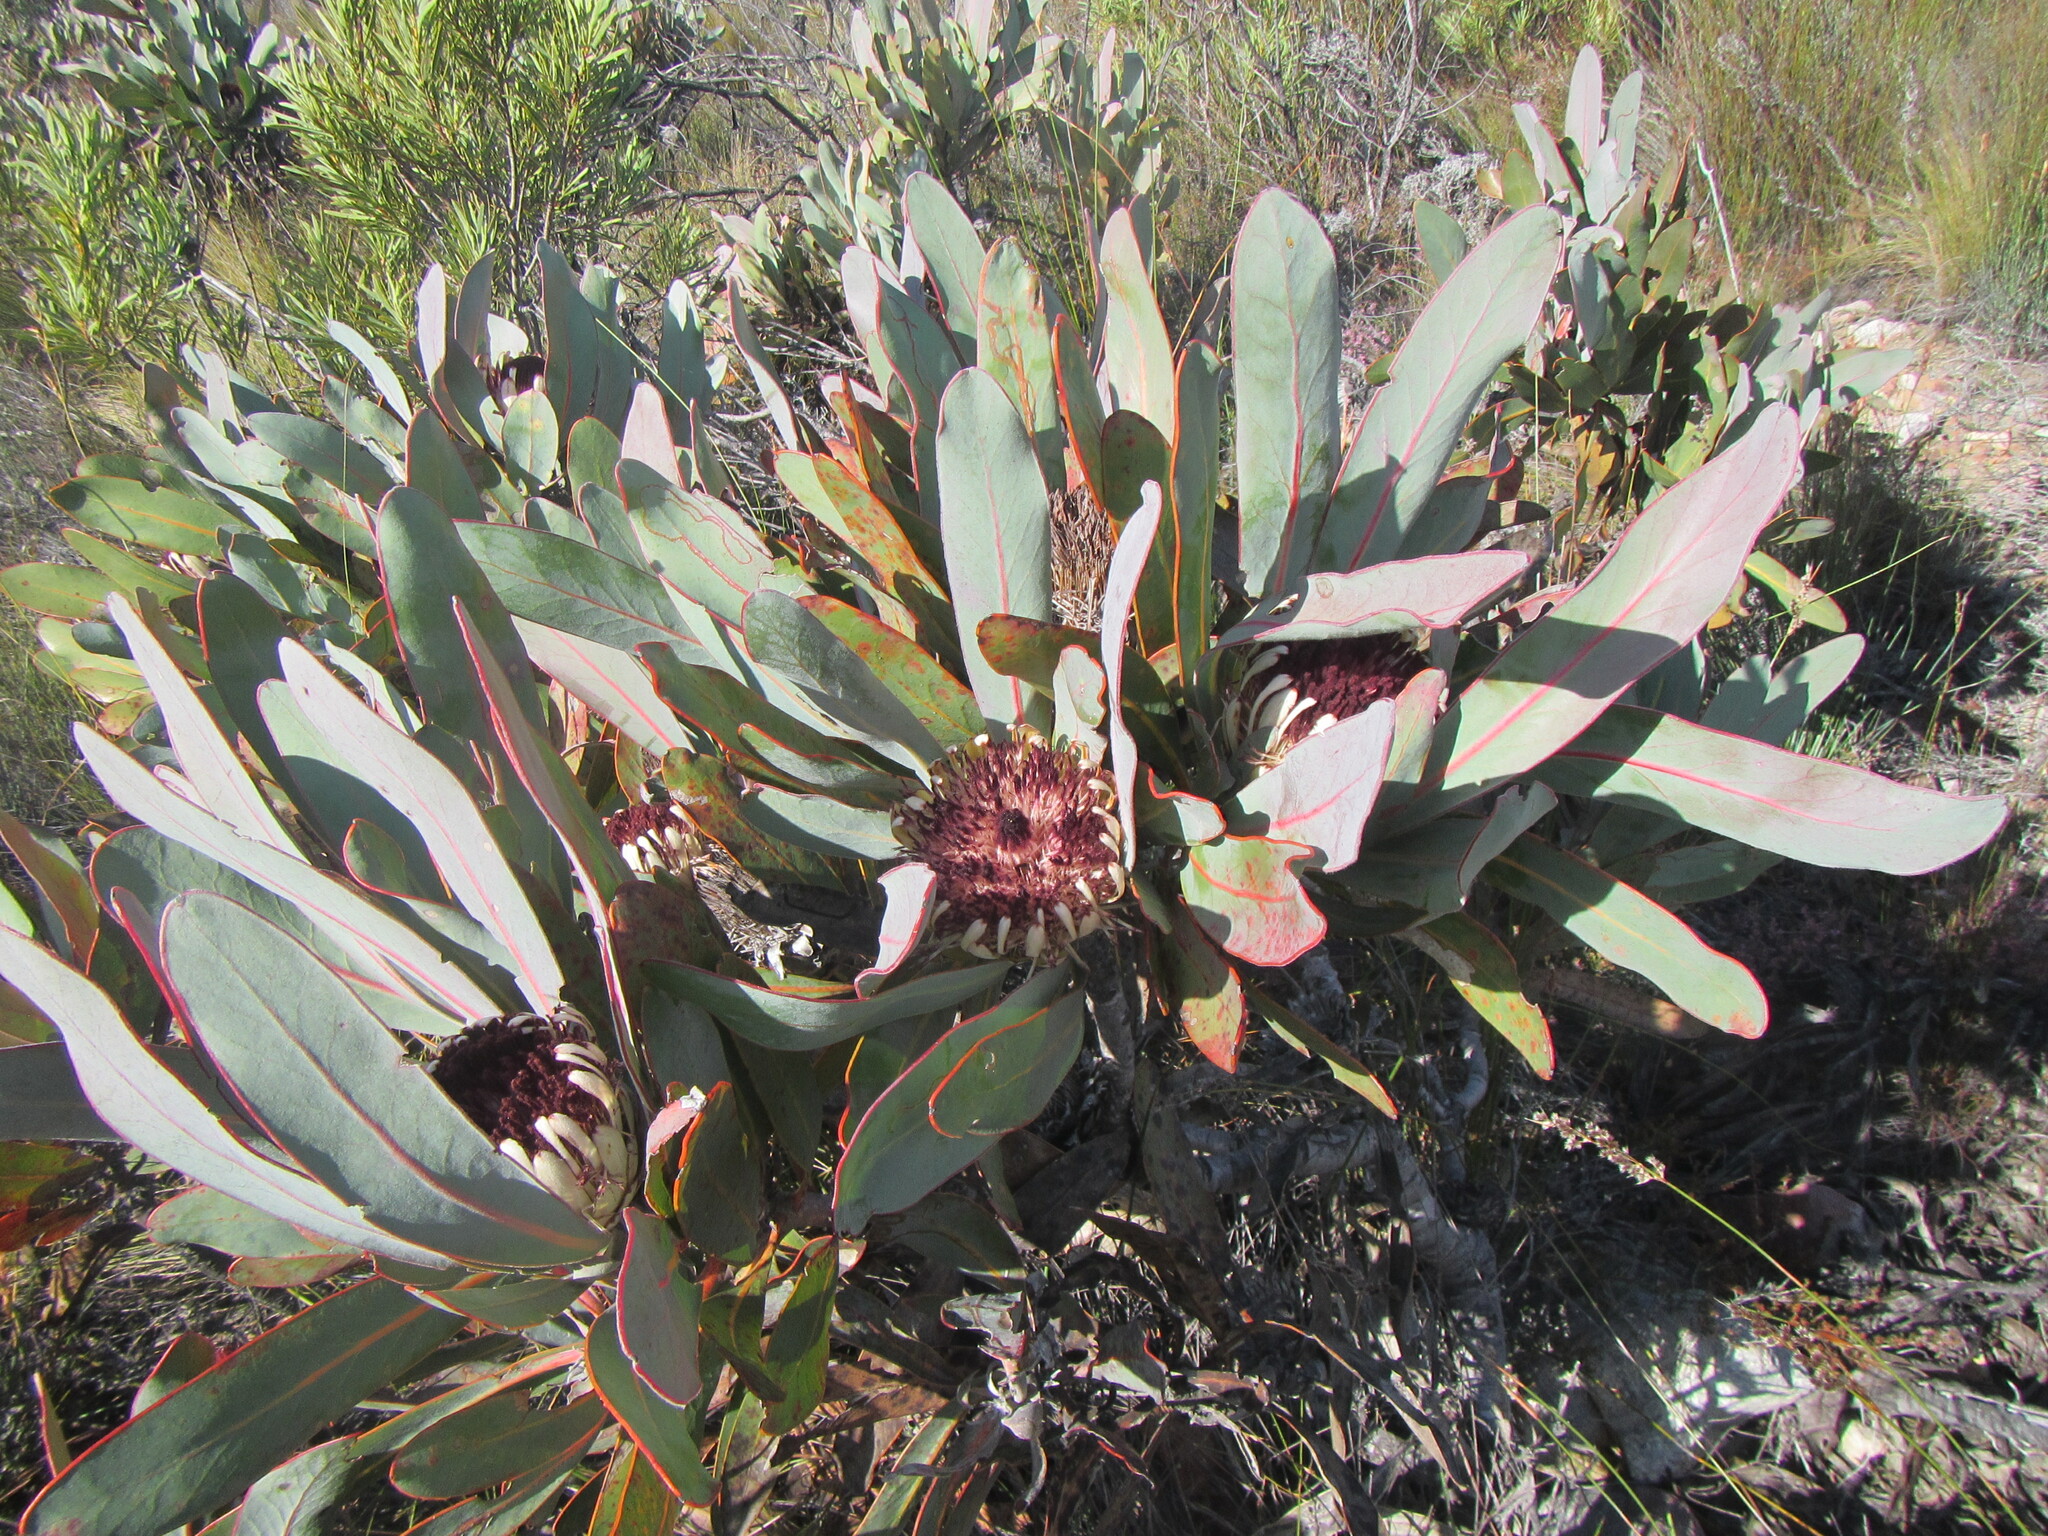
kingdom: Plantae
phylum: Tracheophyta
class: Magnoliopsida
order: Proteales
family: Proteaceae
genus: Protea
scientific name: Protea lorifolia
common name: Strap-leaved protea
